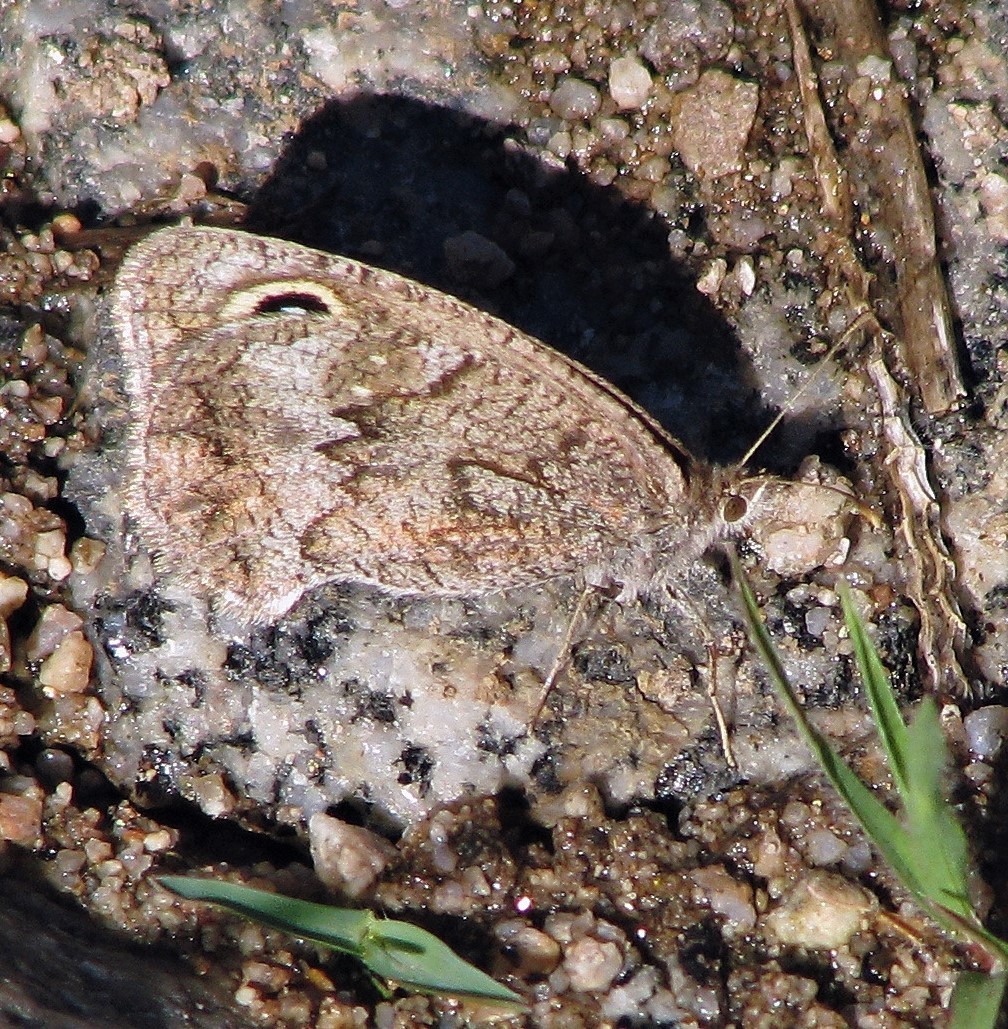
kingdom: Animalia
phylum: Arthropoda
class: Insecta
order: Lepidoptera
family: Nymphalidae
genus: Pampasatyrus
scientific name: Pampasatyrus yacantoensis
